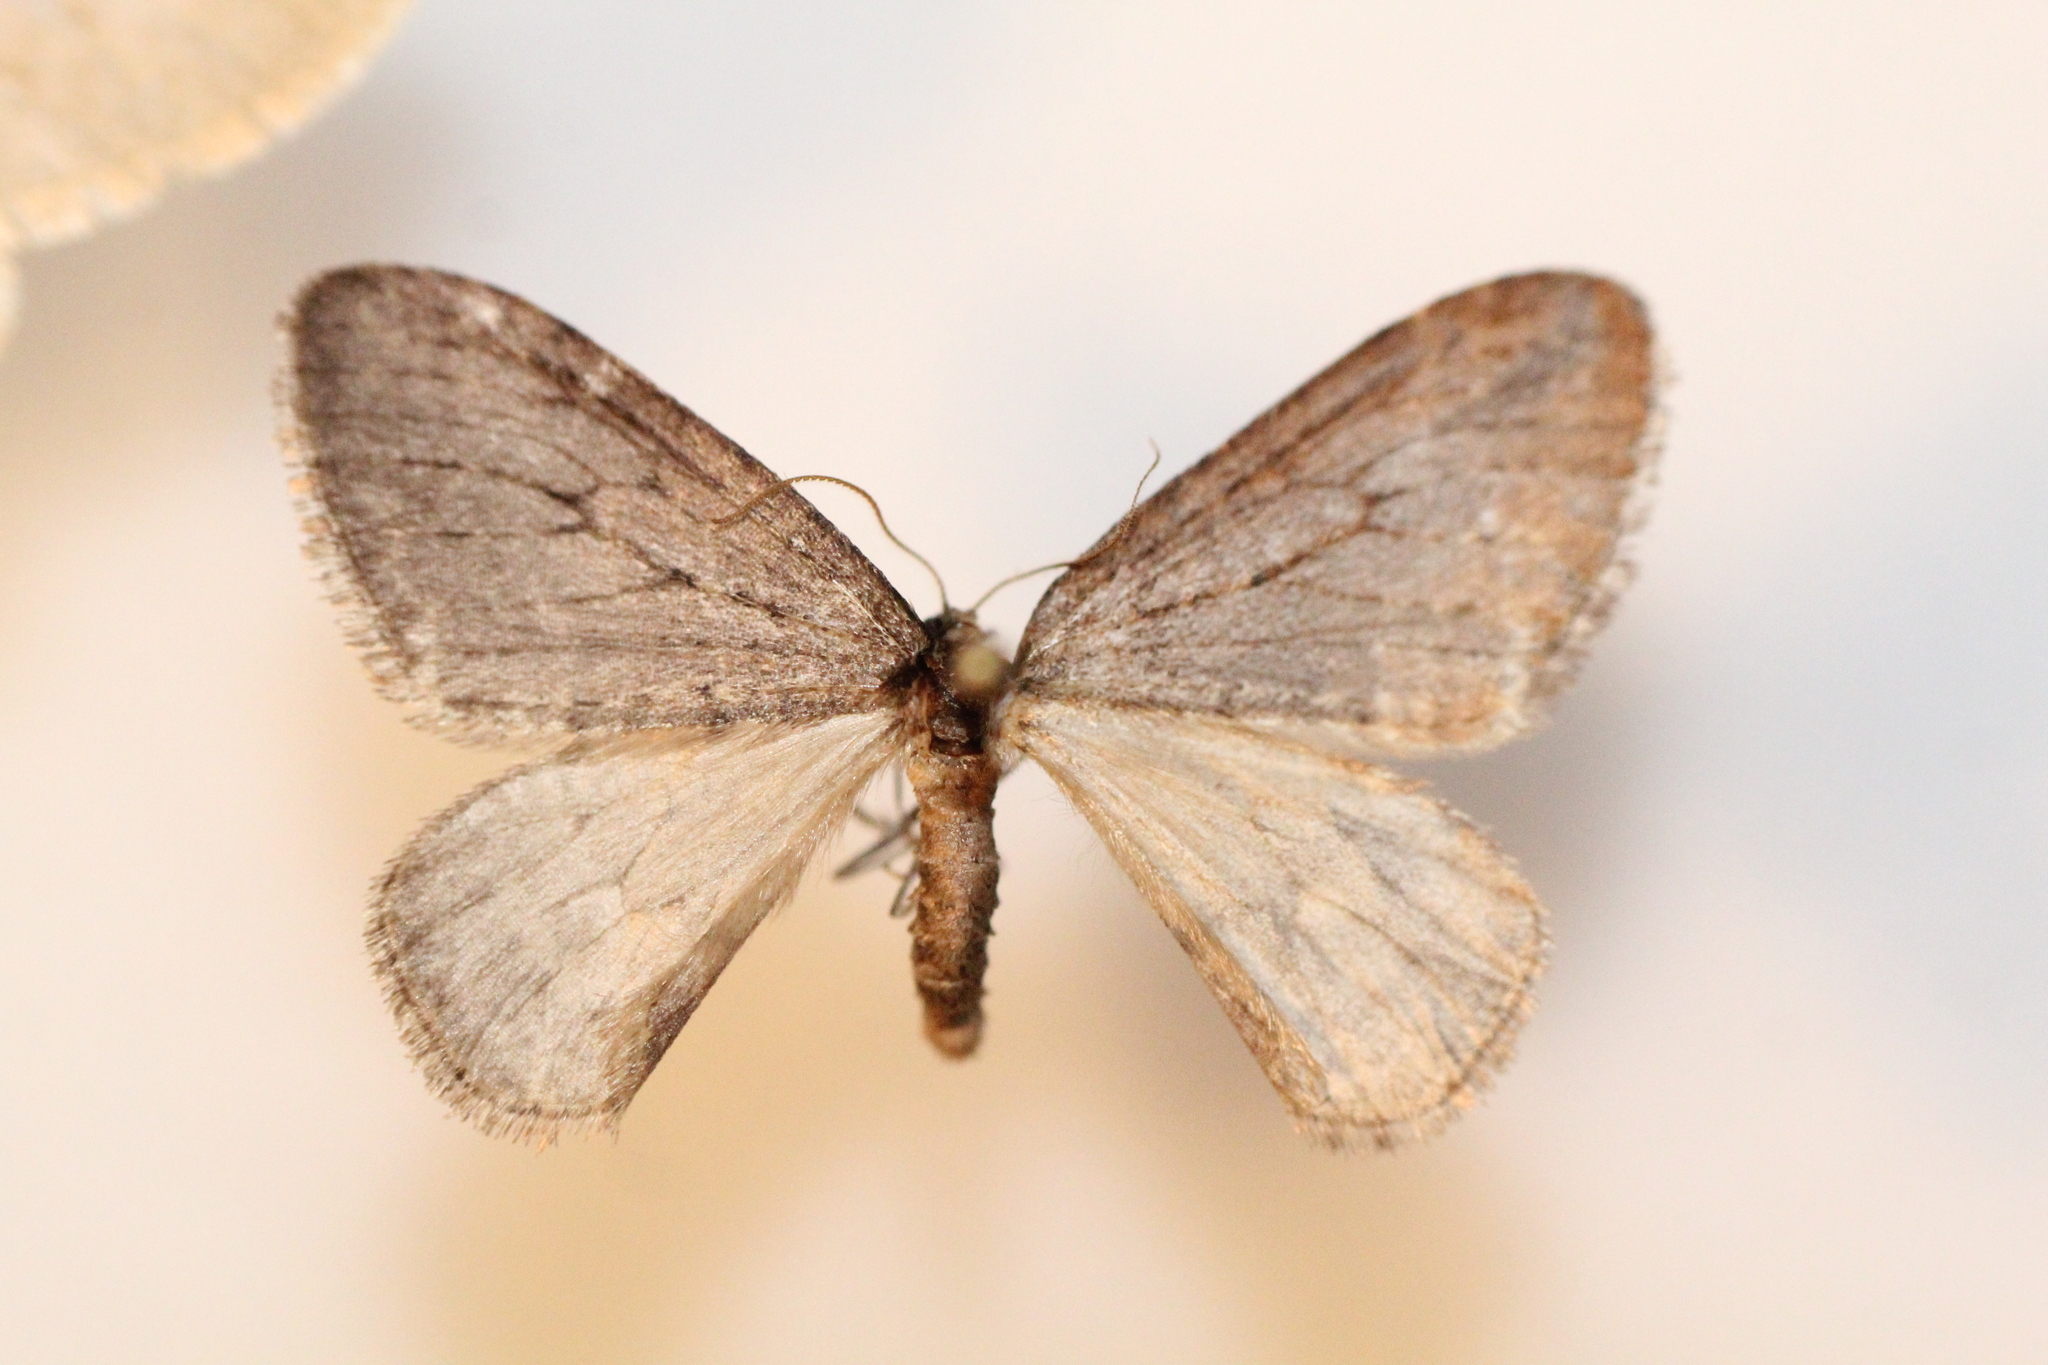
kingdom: Animalia
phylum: Arthropoda
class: Insecta
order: Lepidoptera
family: Geometridae
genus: Operophtera
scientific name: Operophtera brumata
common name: Winter moth
